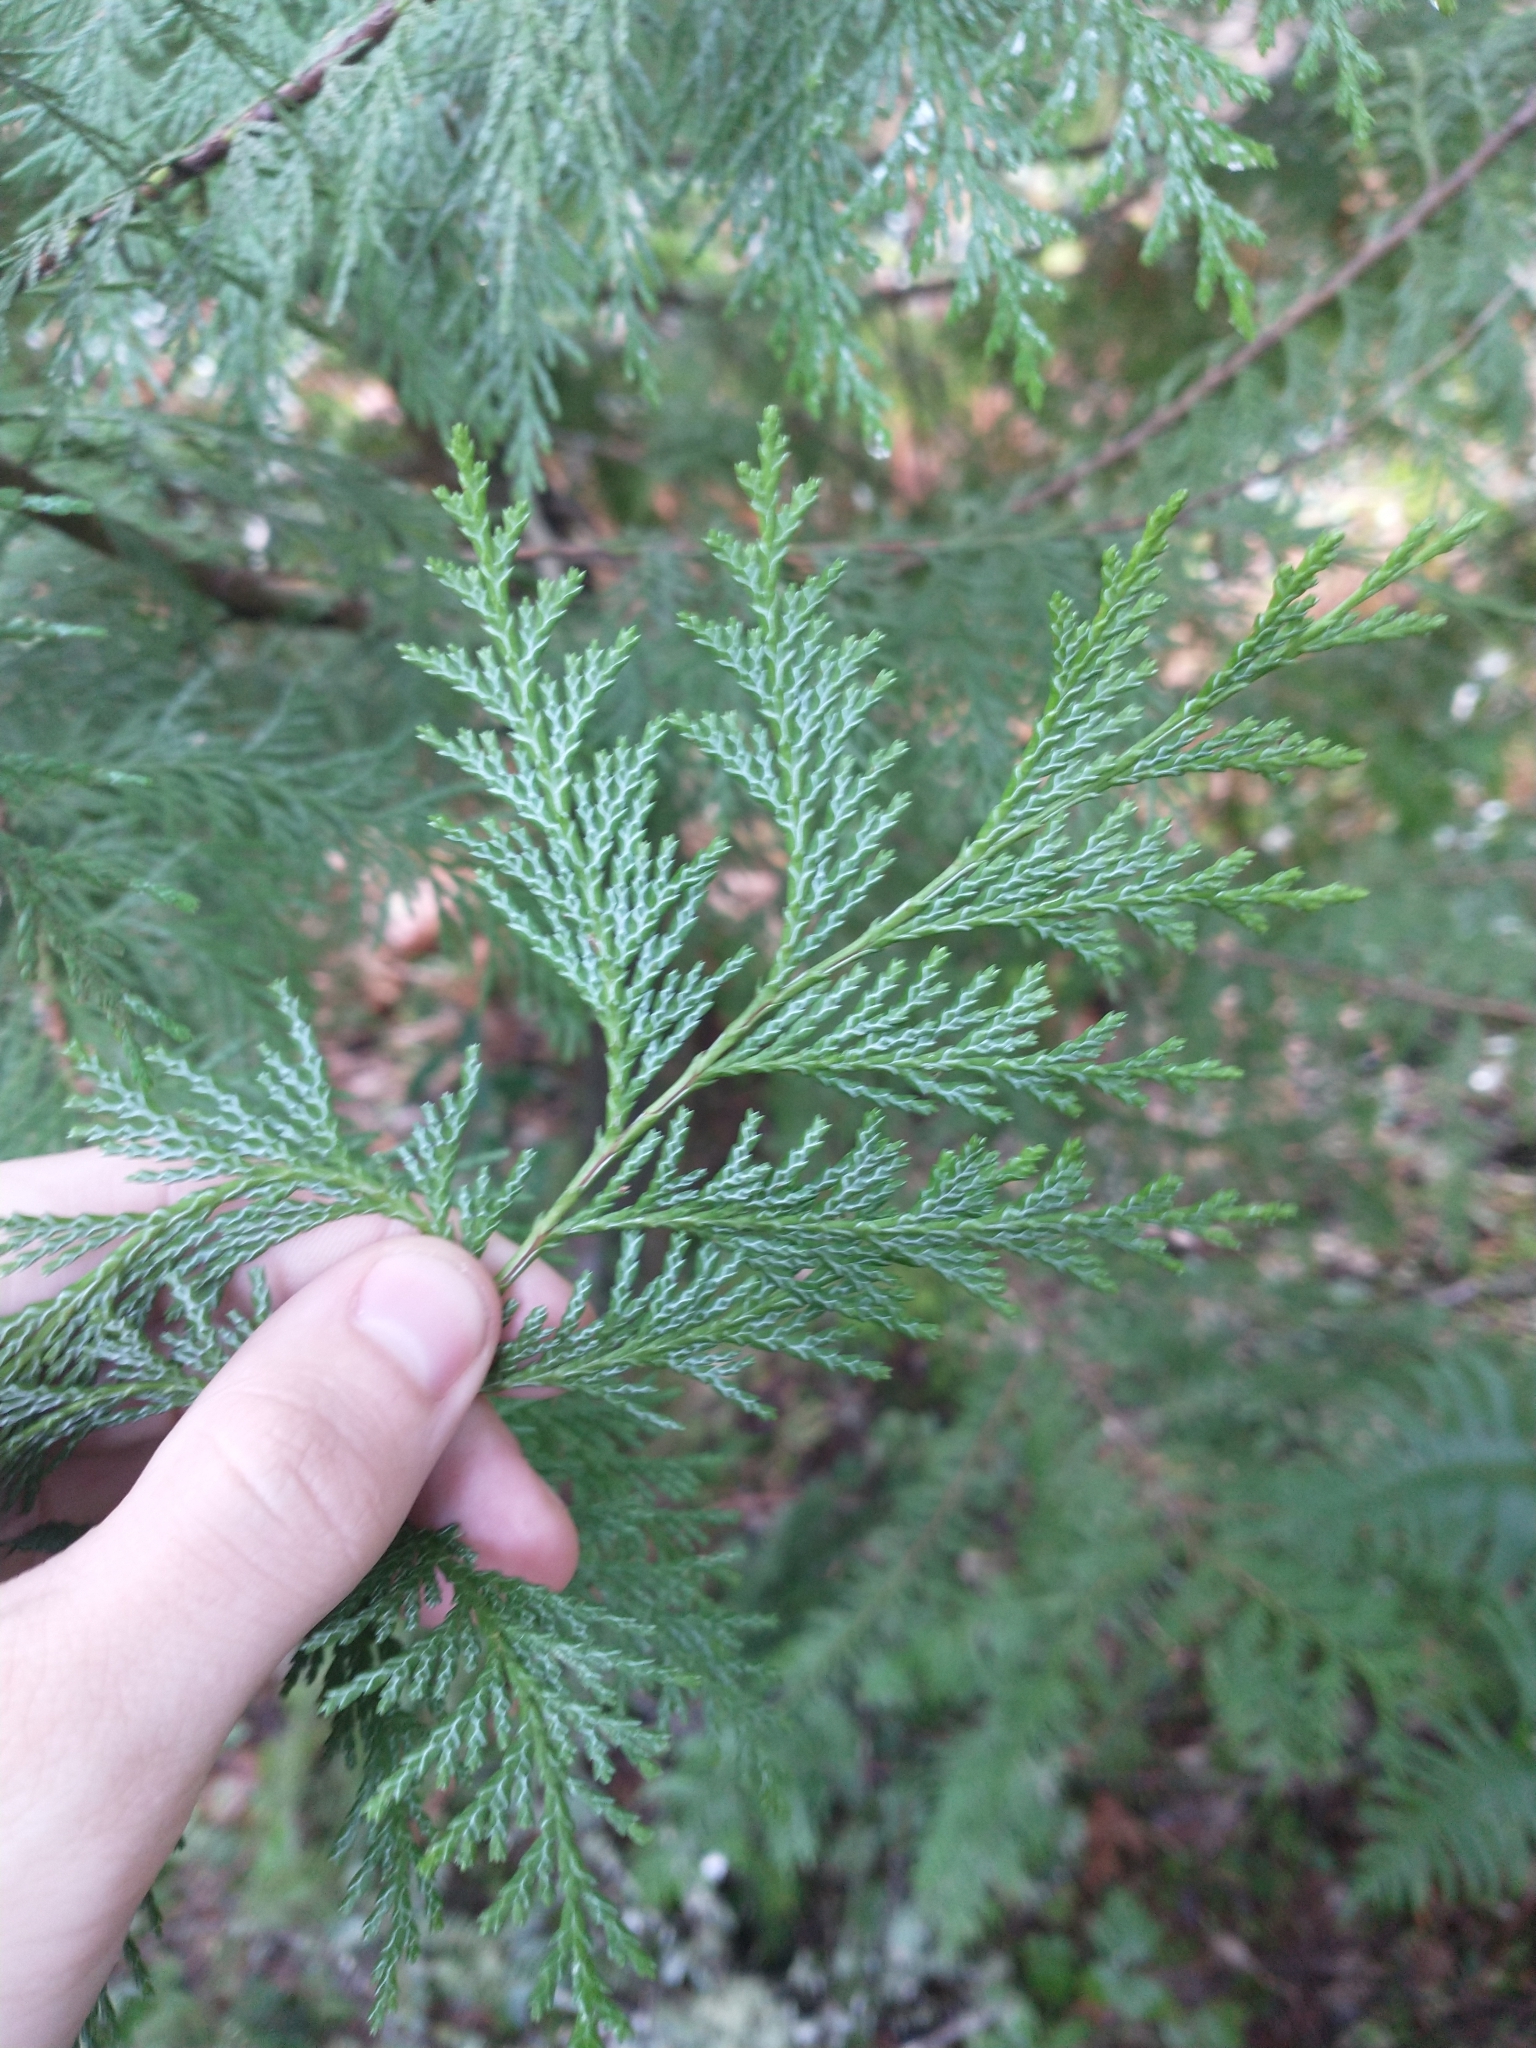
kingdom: Plantae
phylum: Tracheophyta
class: Pinopsida
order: Pinales
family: Cupressaceae
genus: Chamaecyparis
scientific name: Chamaecyparis lawsoniana
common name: Lawson's cypress
